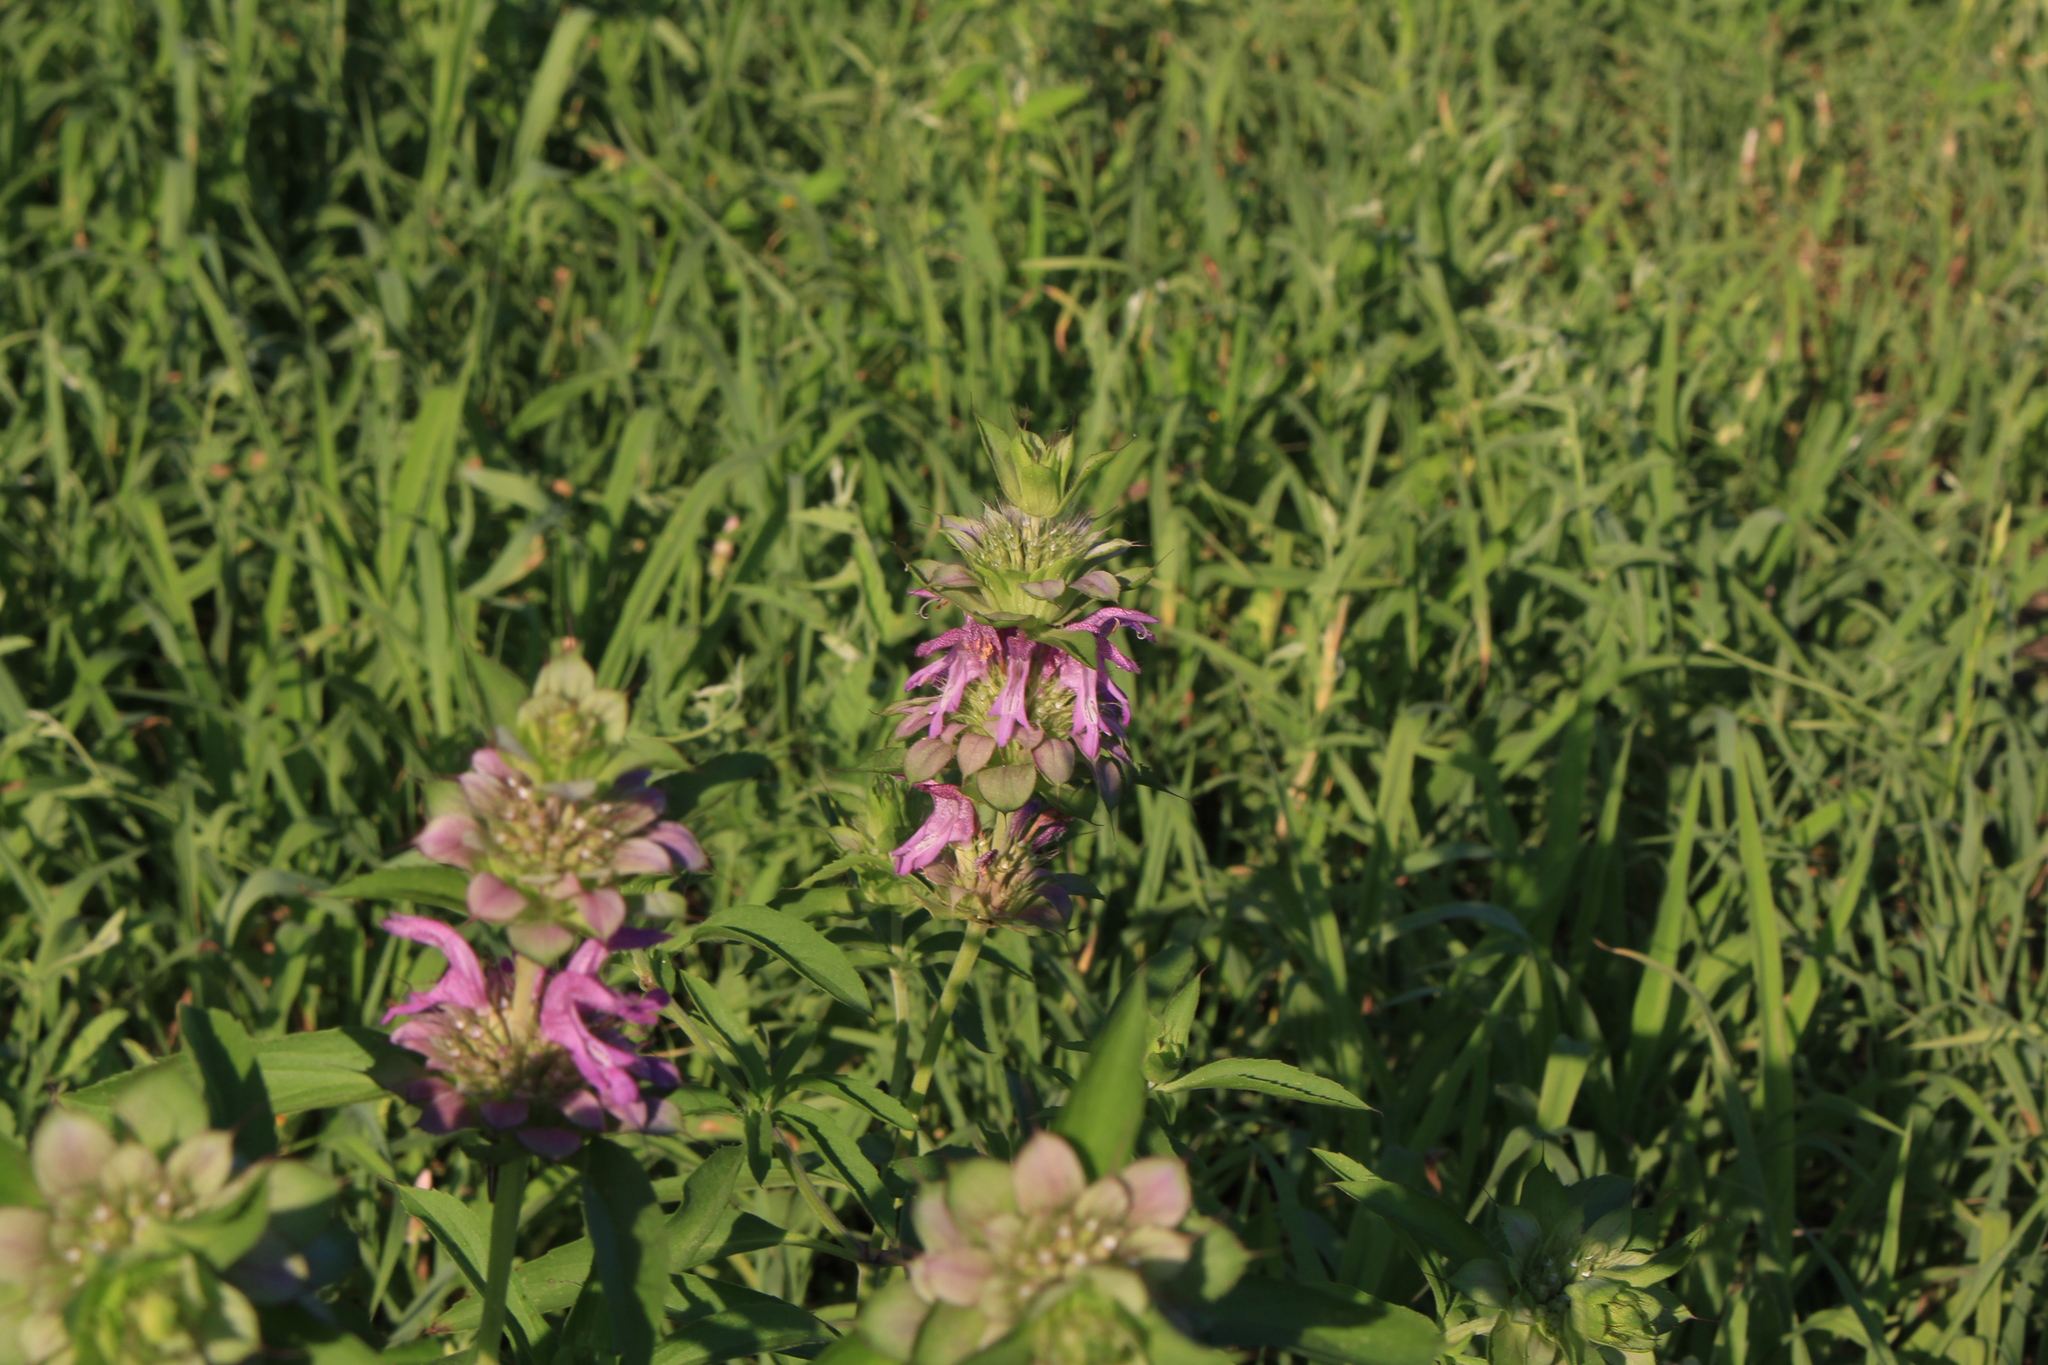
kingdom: Plantae
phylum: Tracheophyta
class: Magnoliopsida
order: Lamiales
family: Lamiaceae
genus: Monarda
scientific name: Monarda citriodora
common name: Lemon beebalm
